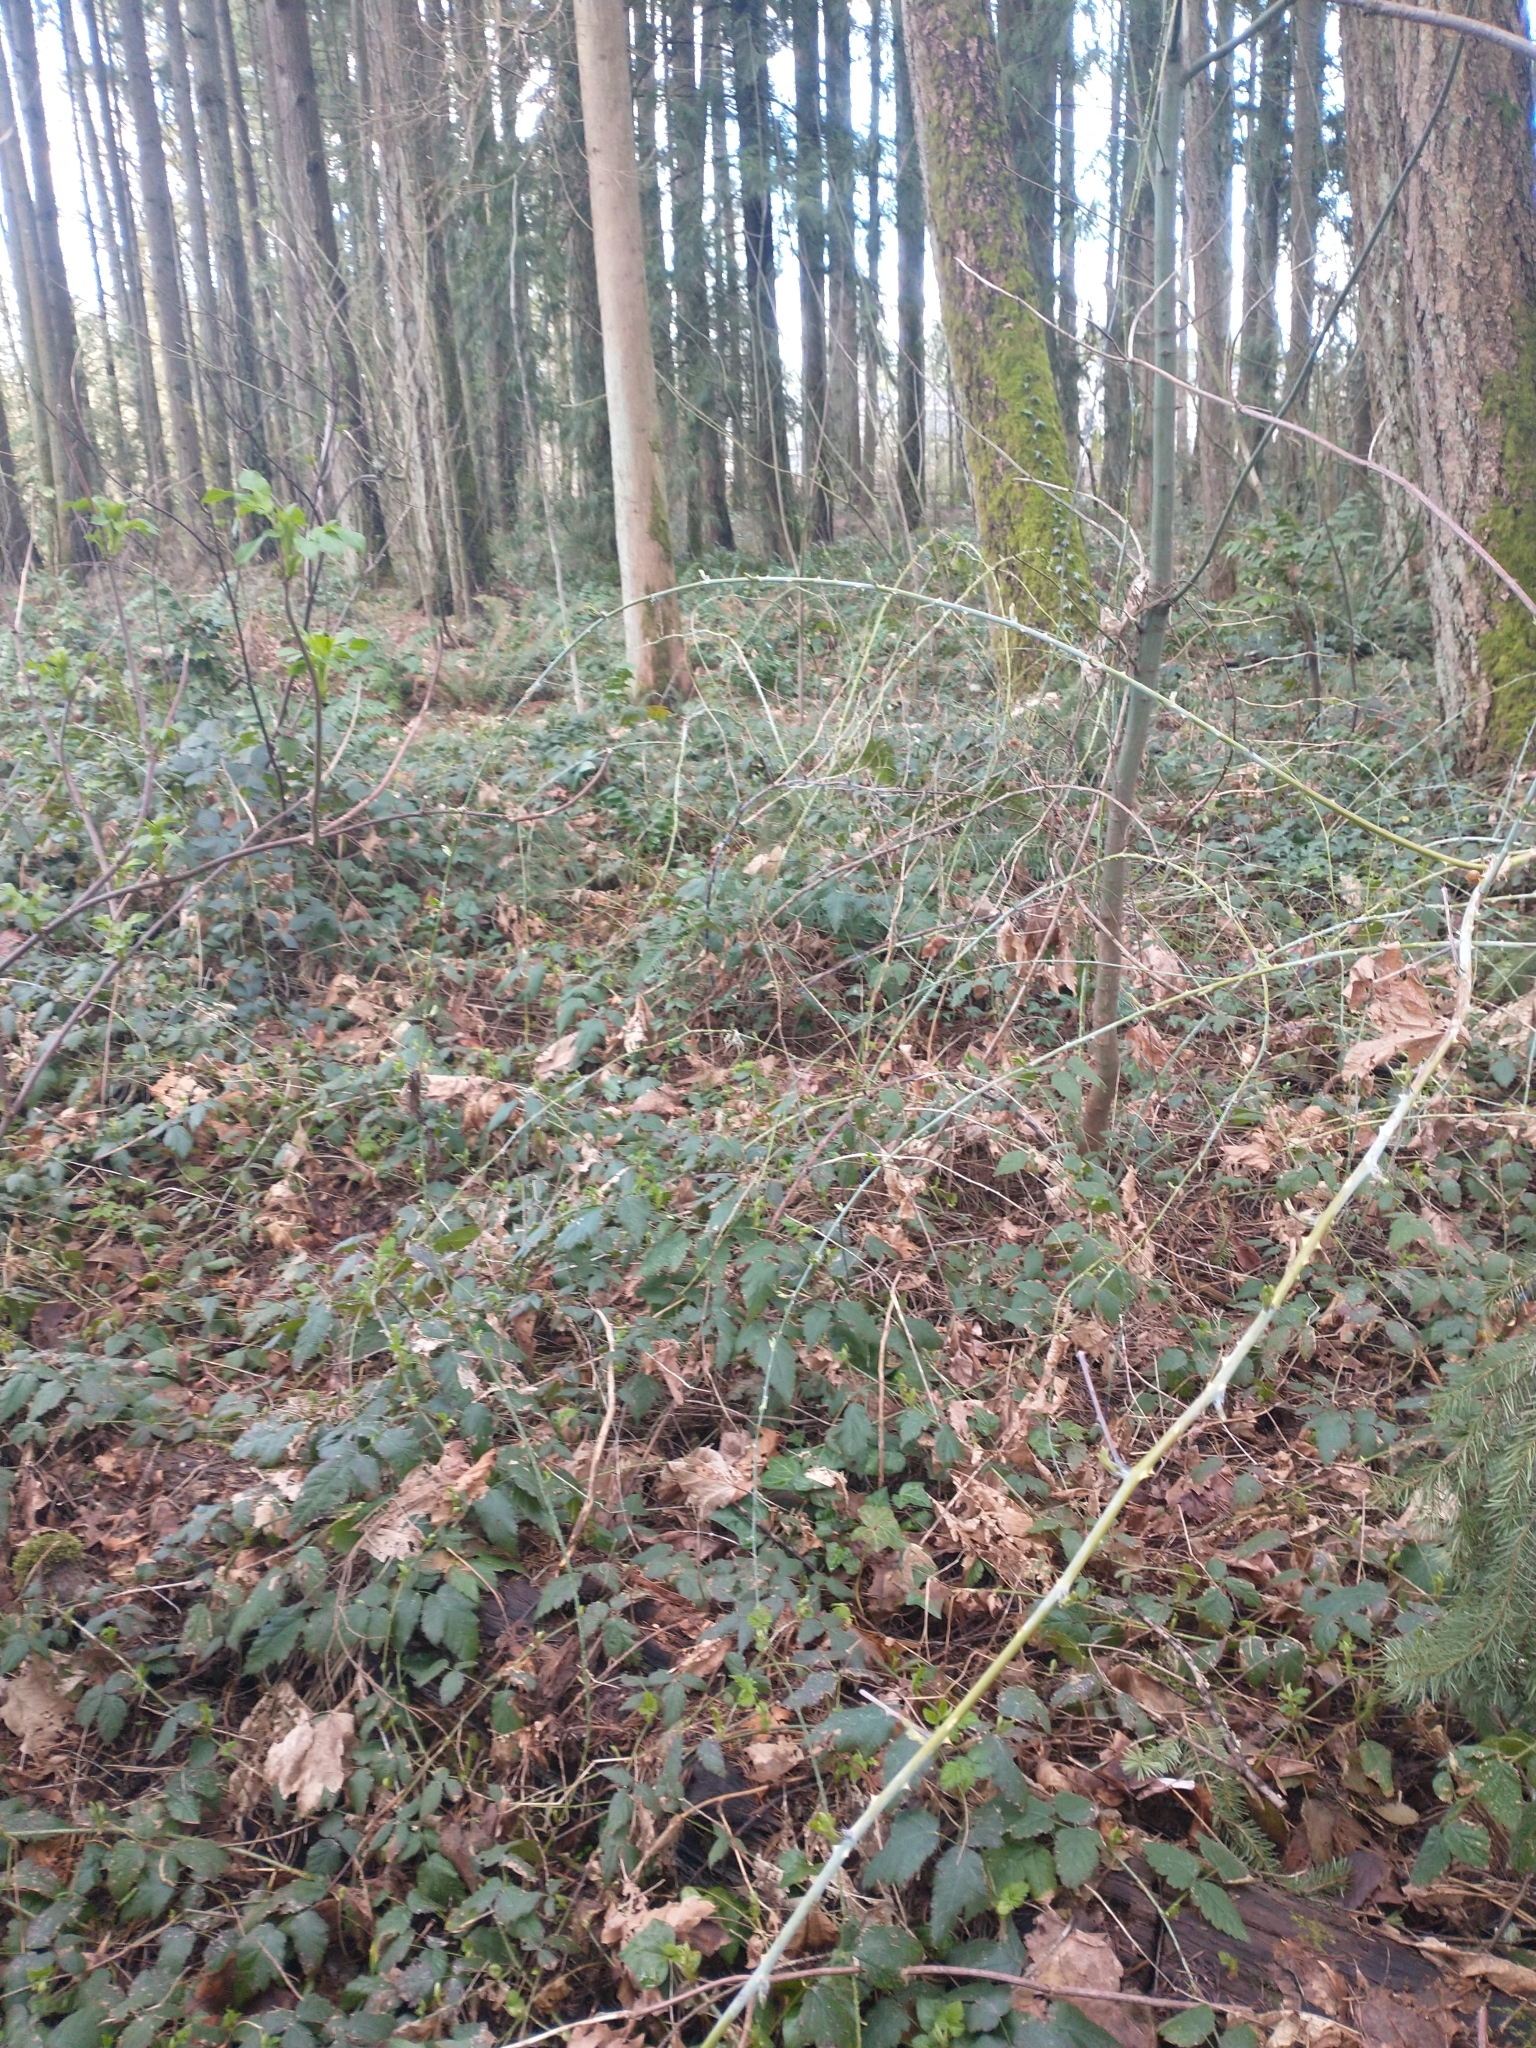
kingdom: Plantae
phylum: Tracheophyta
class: Magnoliopsida
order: Rosales
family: Rosaceae
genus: Rubus
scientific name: Rubus leucodermis
